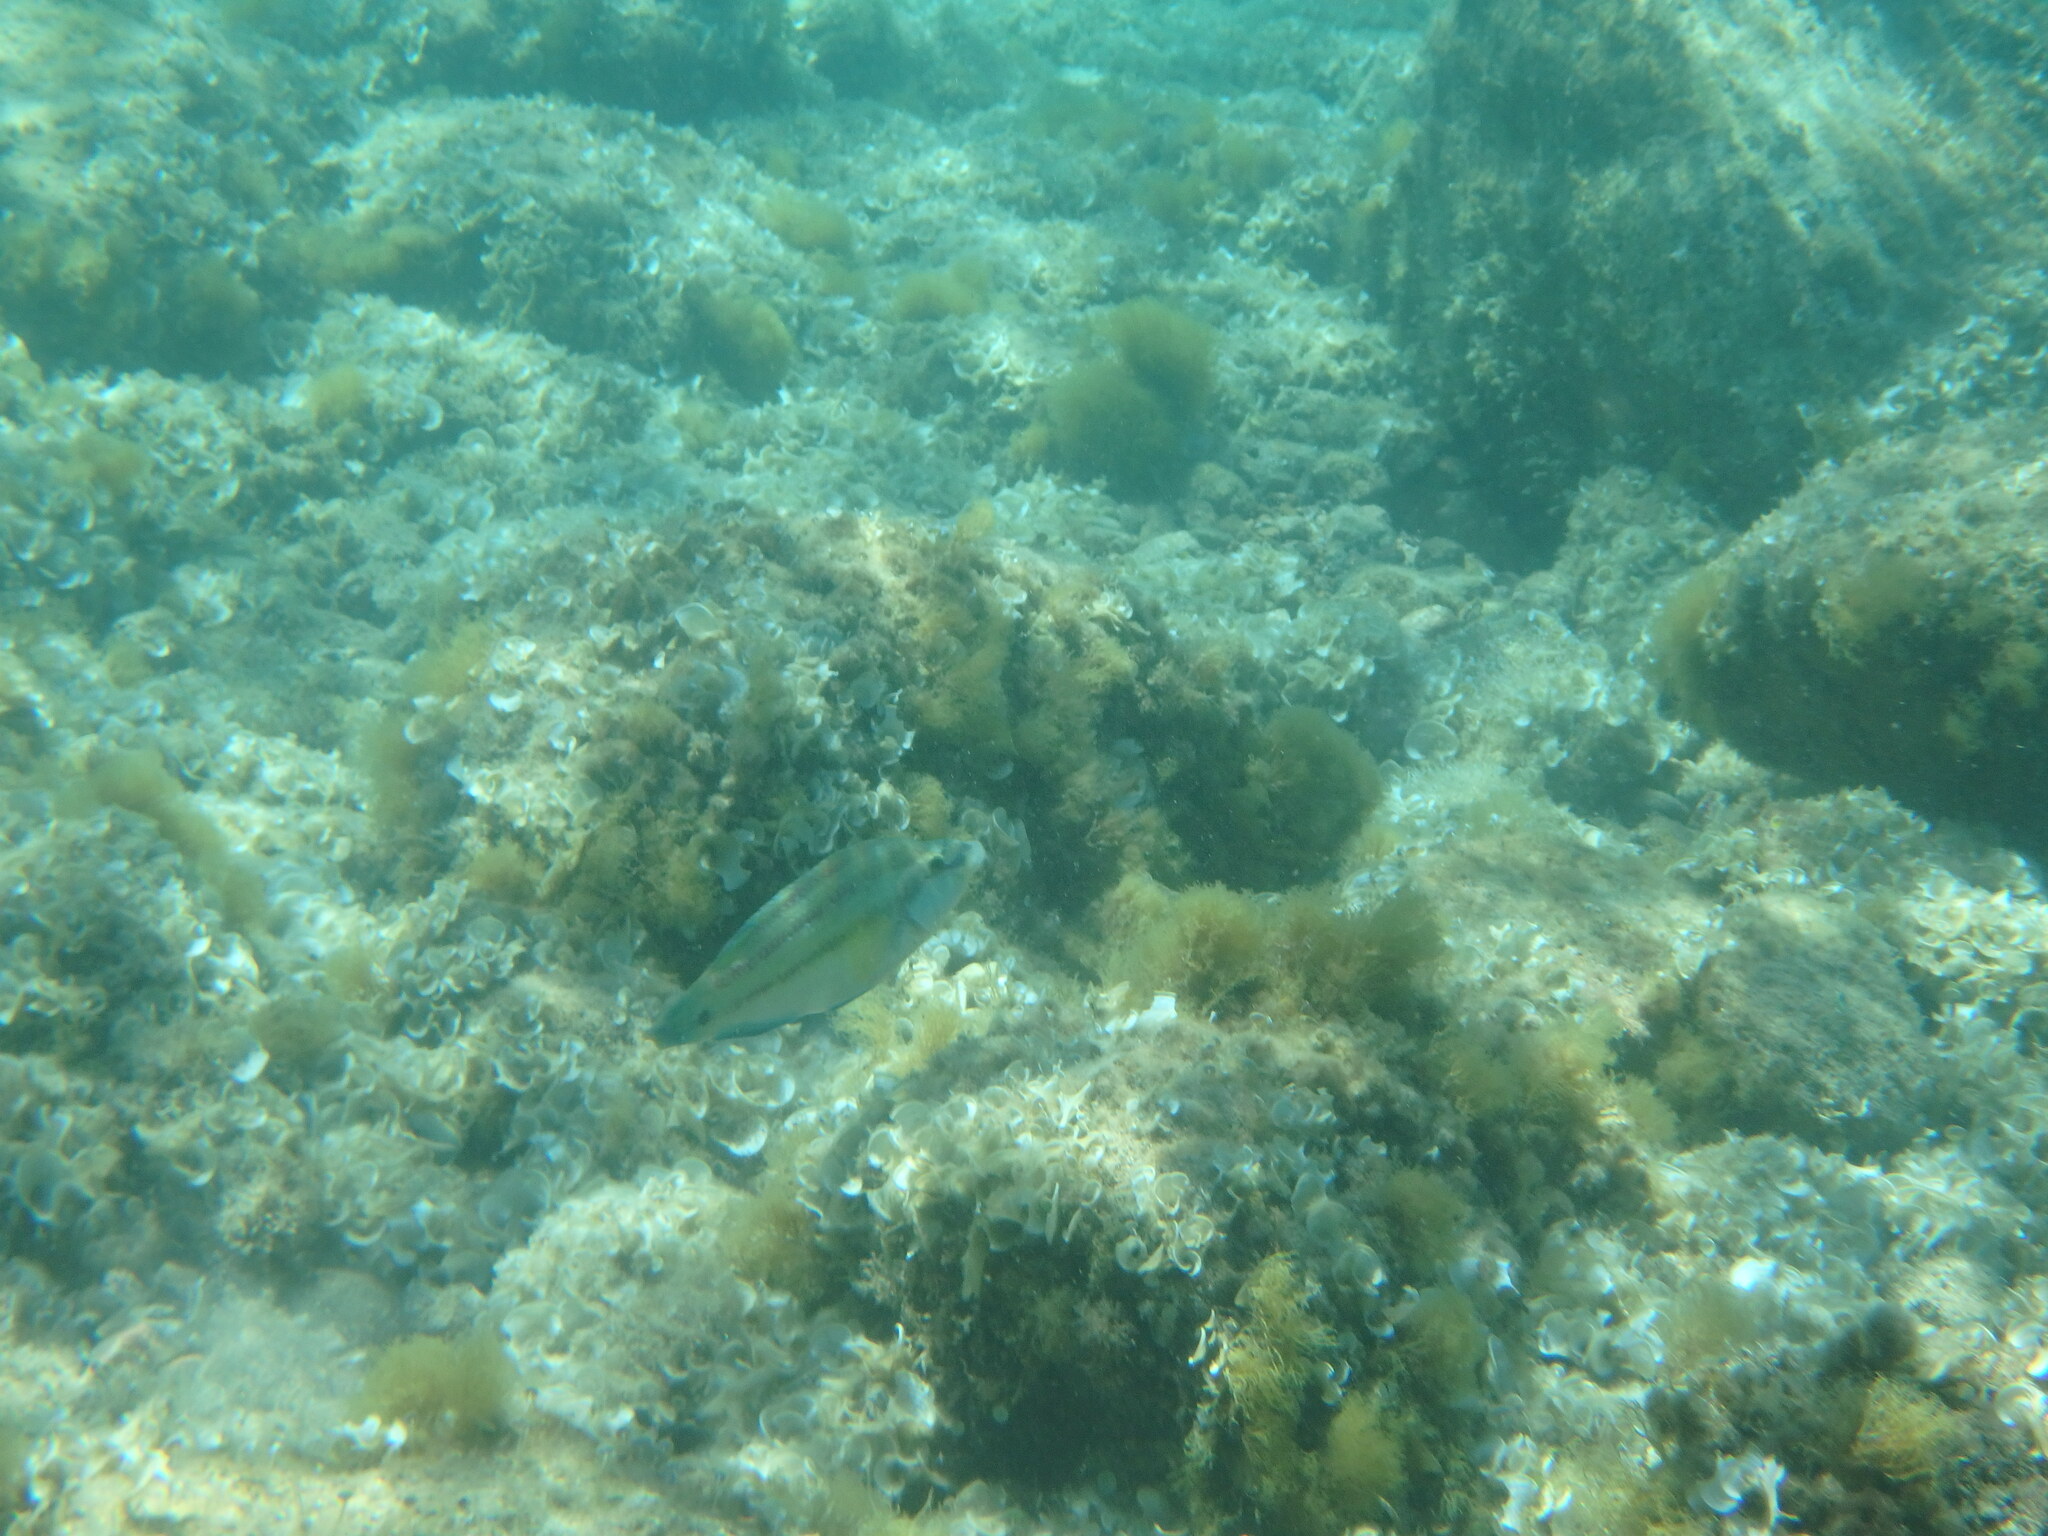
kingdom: Animalia
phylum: Chordata
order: Perciformes
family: Labridae
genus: Symphodus
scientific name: Symphodus tinca
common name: Peacock wrasse
